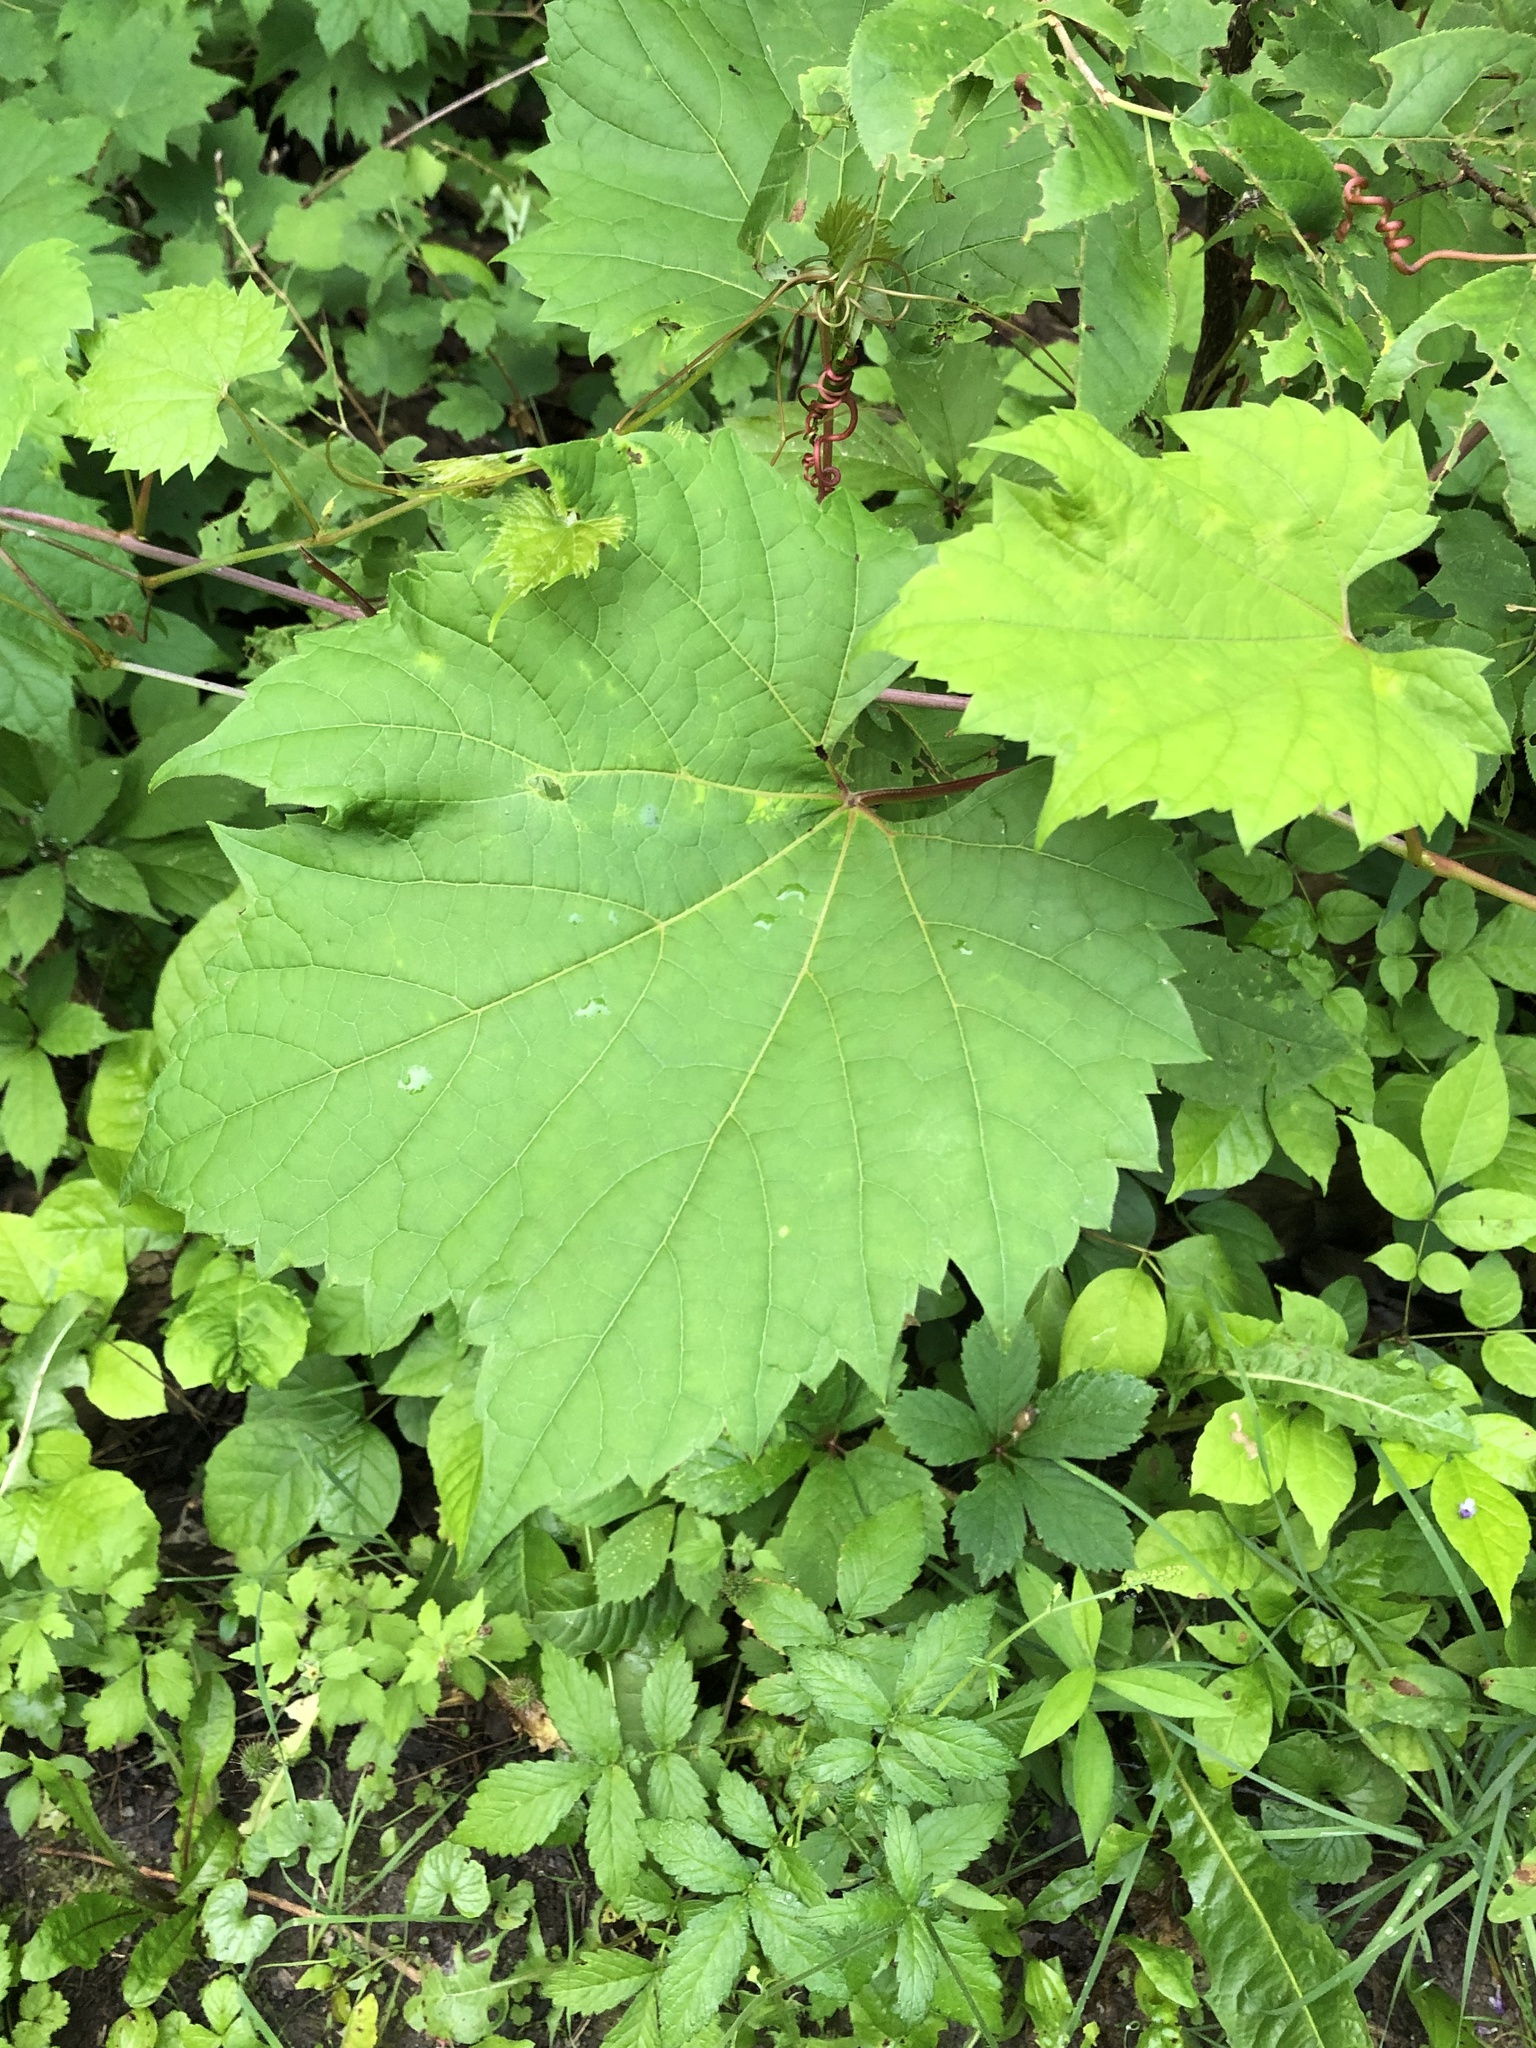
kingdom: Plantae
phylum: Tracheophyta
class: Magnoliopsida
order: Vitales
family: Vitaceae
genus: Vitis
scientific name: Vitis riparia
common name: Frost grape
